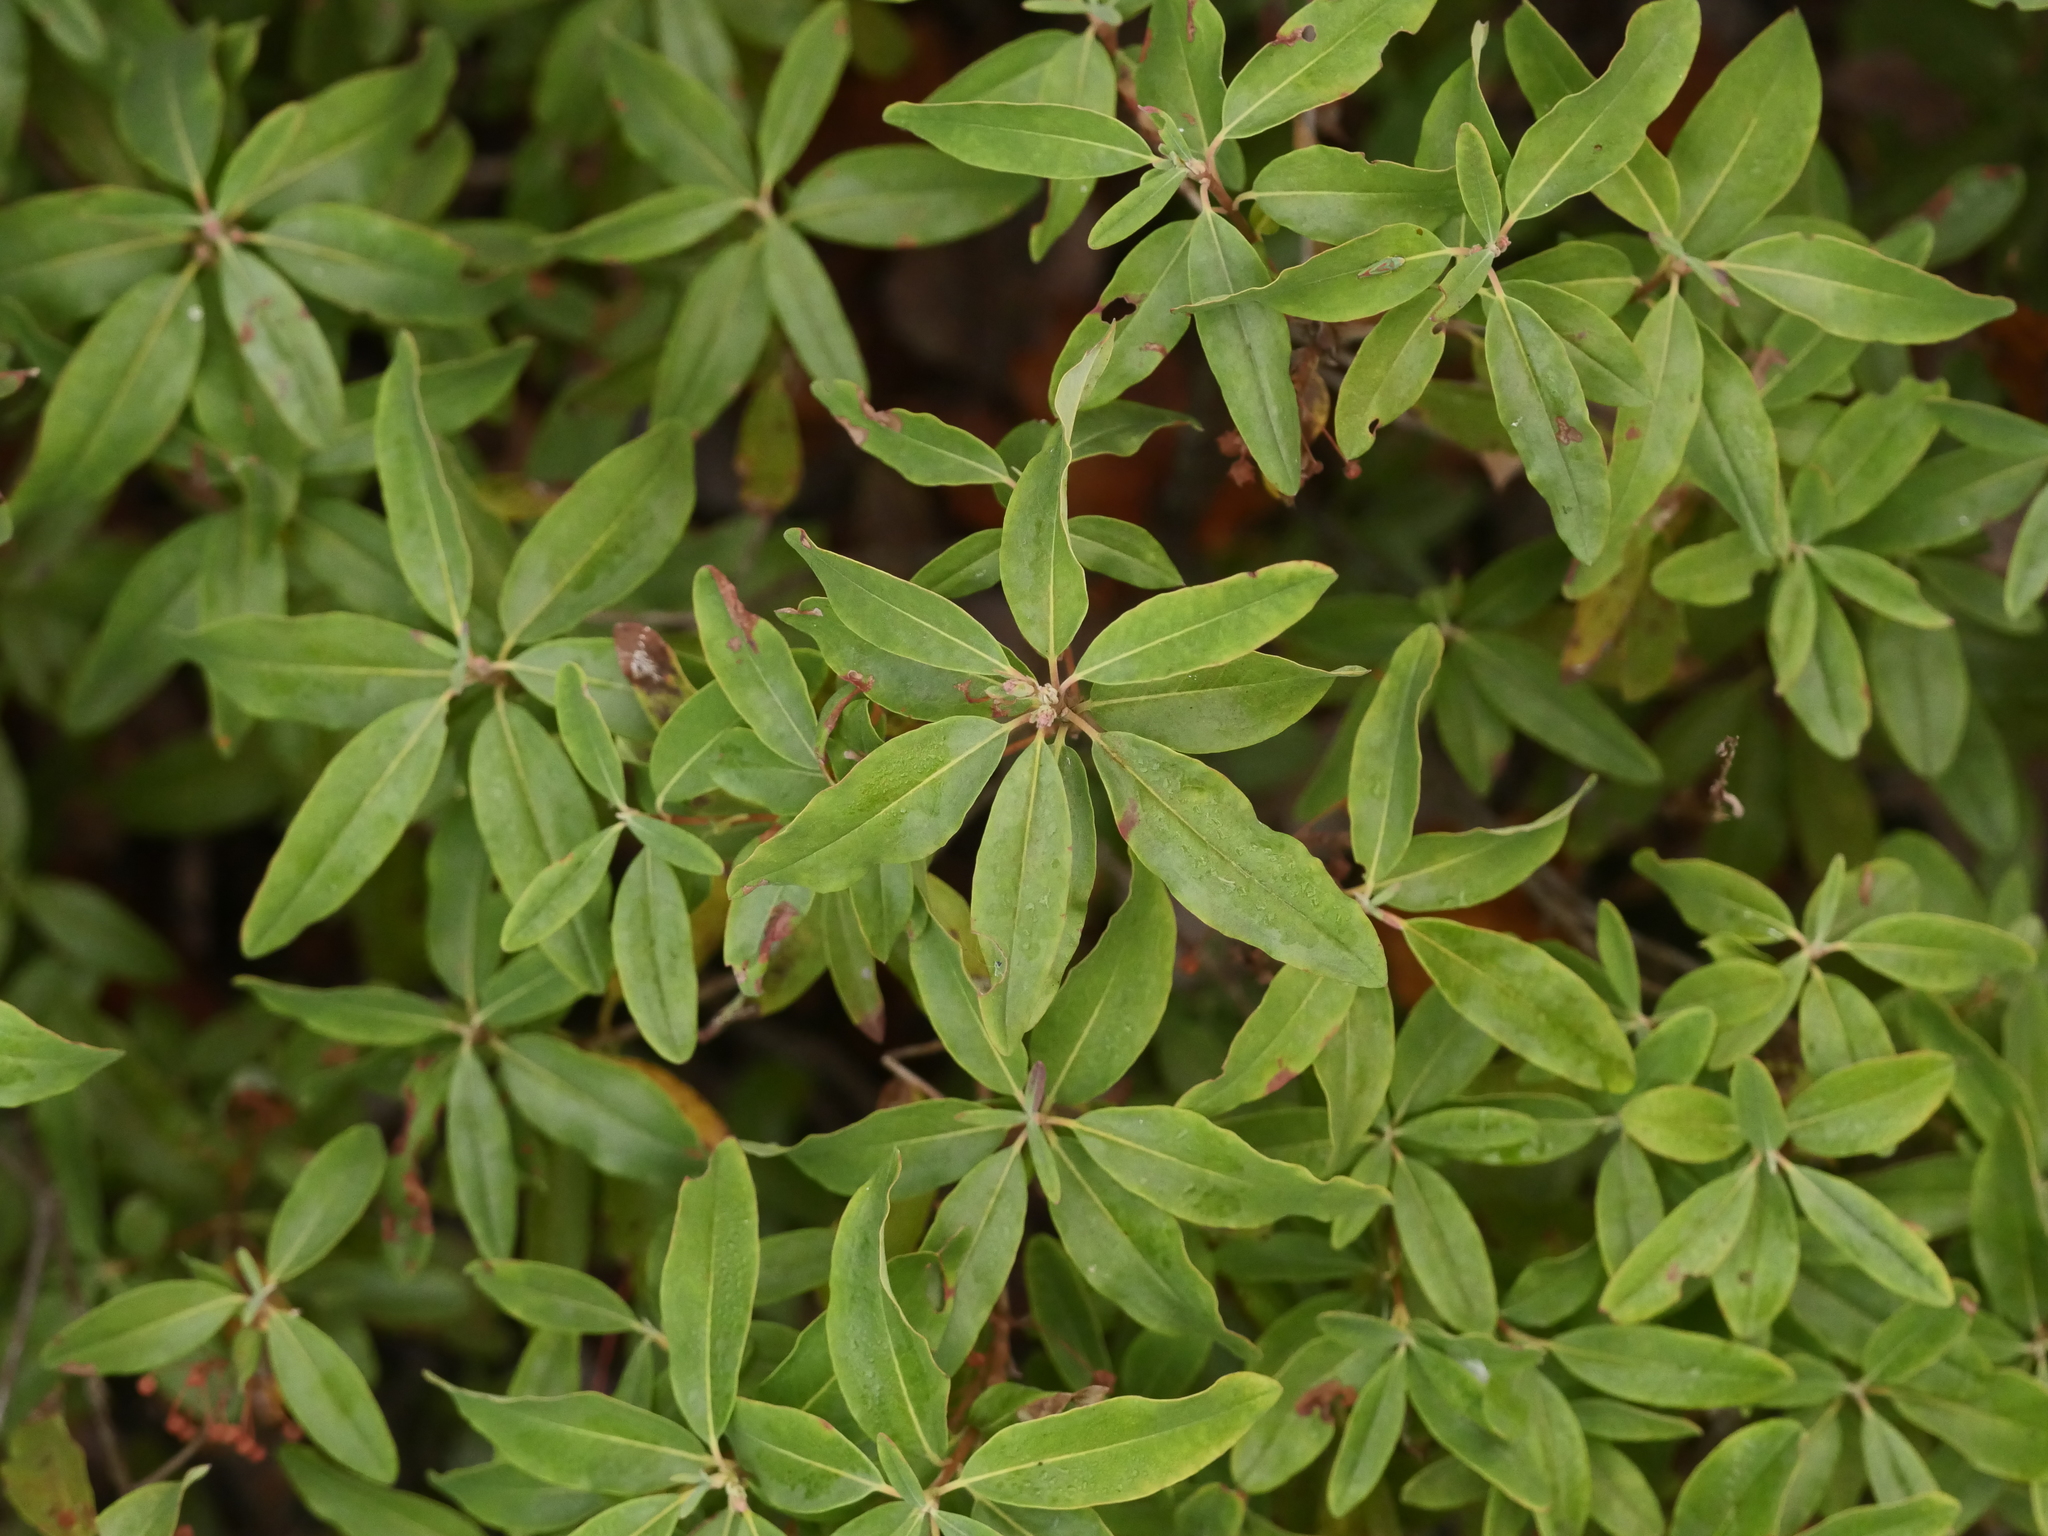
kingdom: Plantae
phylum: Tracheophyta
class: Magnoliopsida
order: Ericales
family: Ericaceae
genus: Kalmia
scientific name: Kalmia angustifolia
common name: Sheep-laurel
